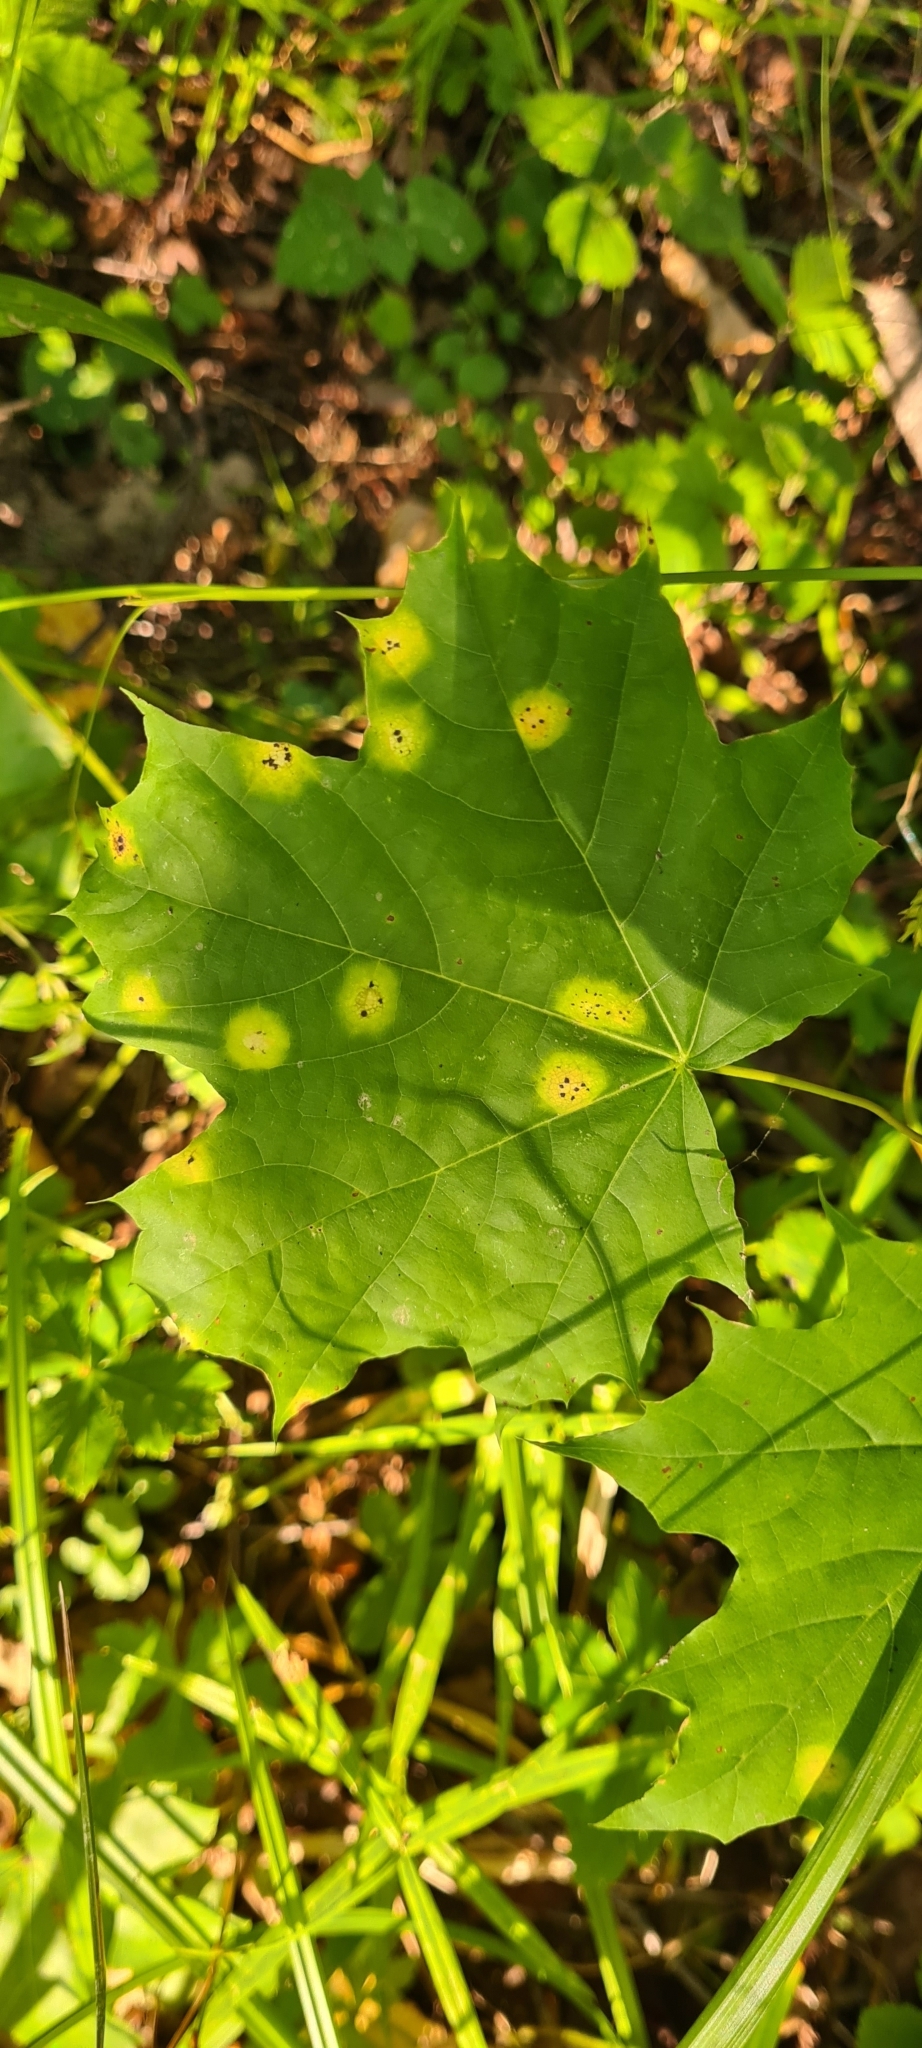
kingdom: Fungi
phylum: Ascomycota
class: Leotiomycetes
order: Rhytismatales
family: Rhytismataceae
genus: Rhytisma
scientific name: Rhytisma acerinum
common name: European tar spot
